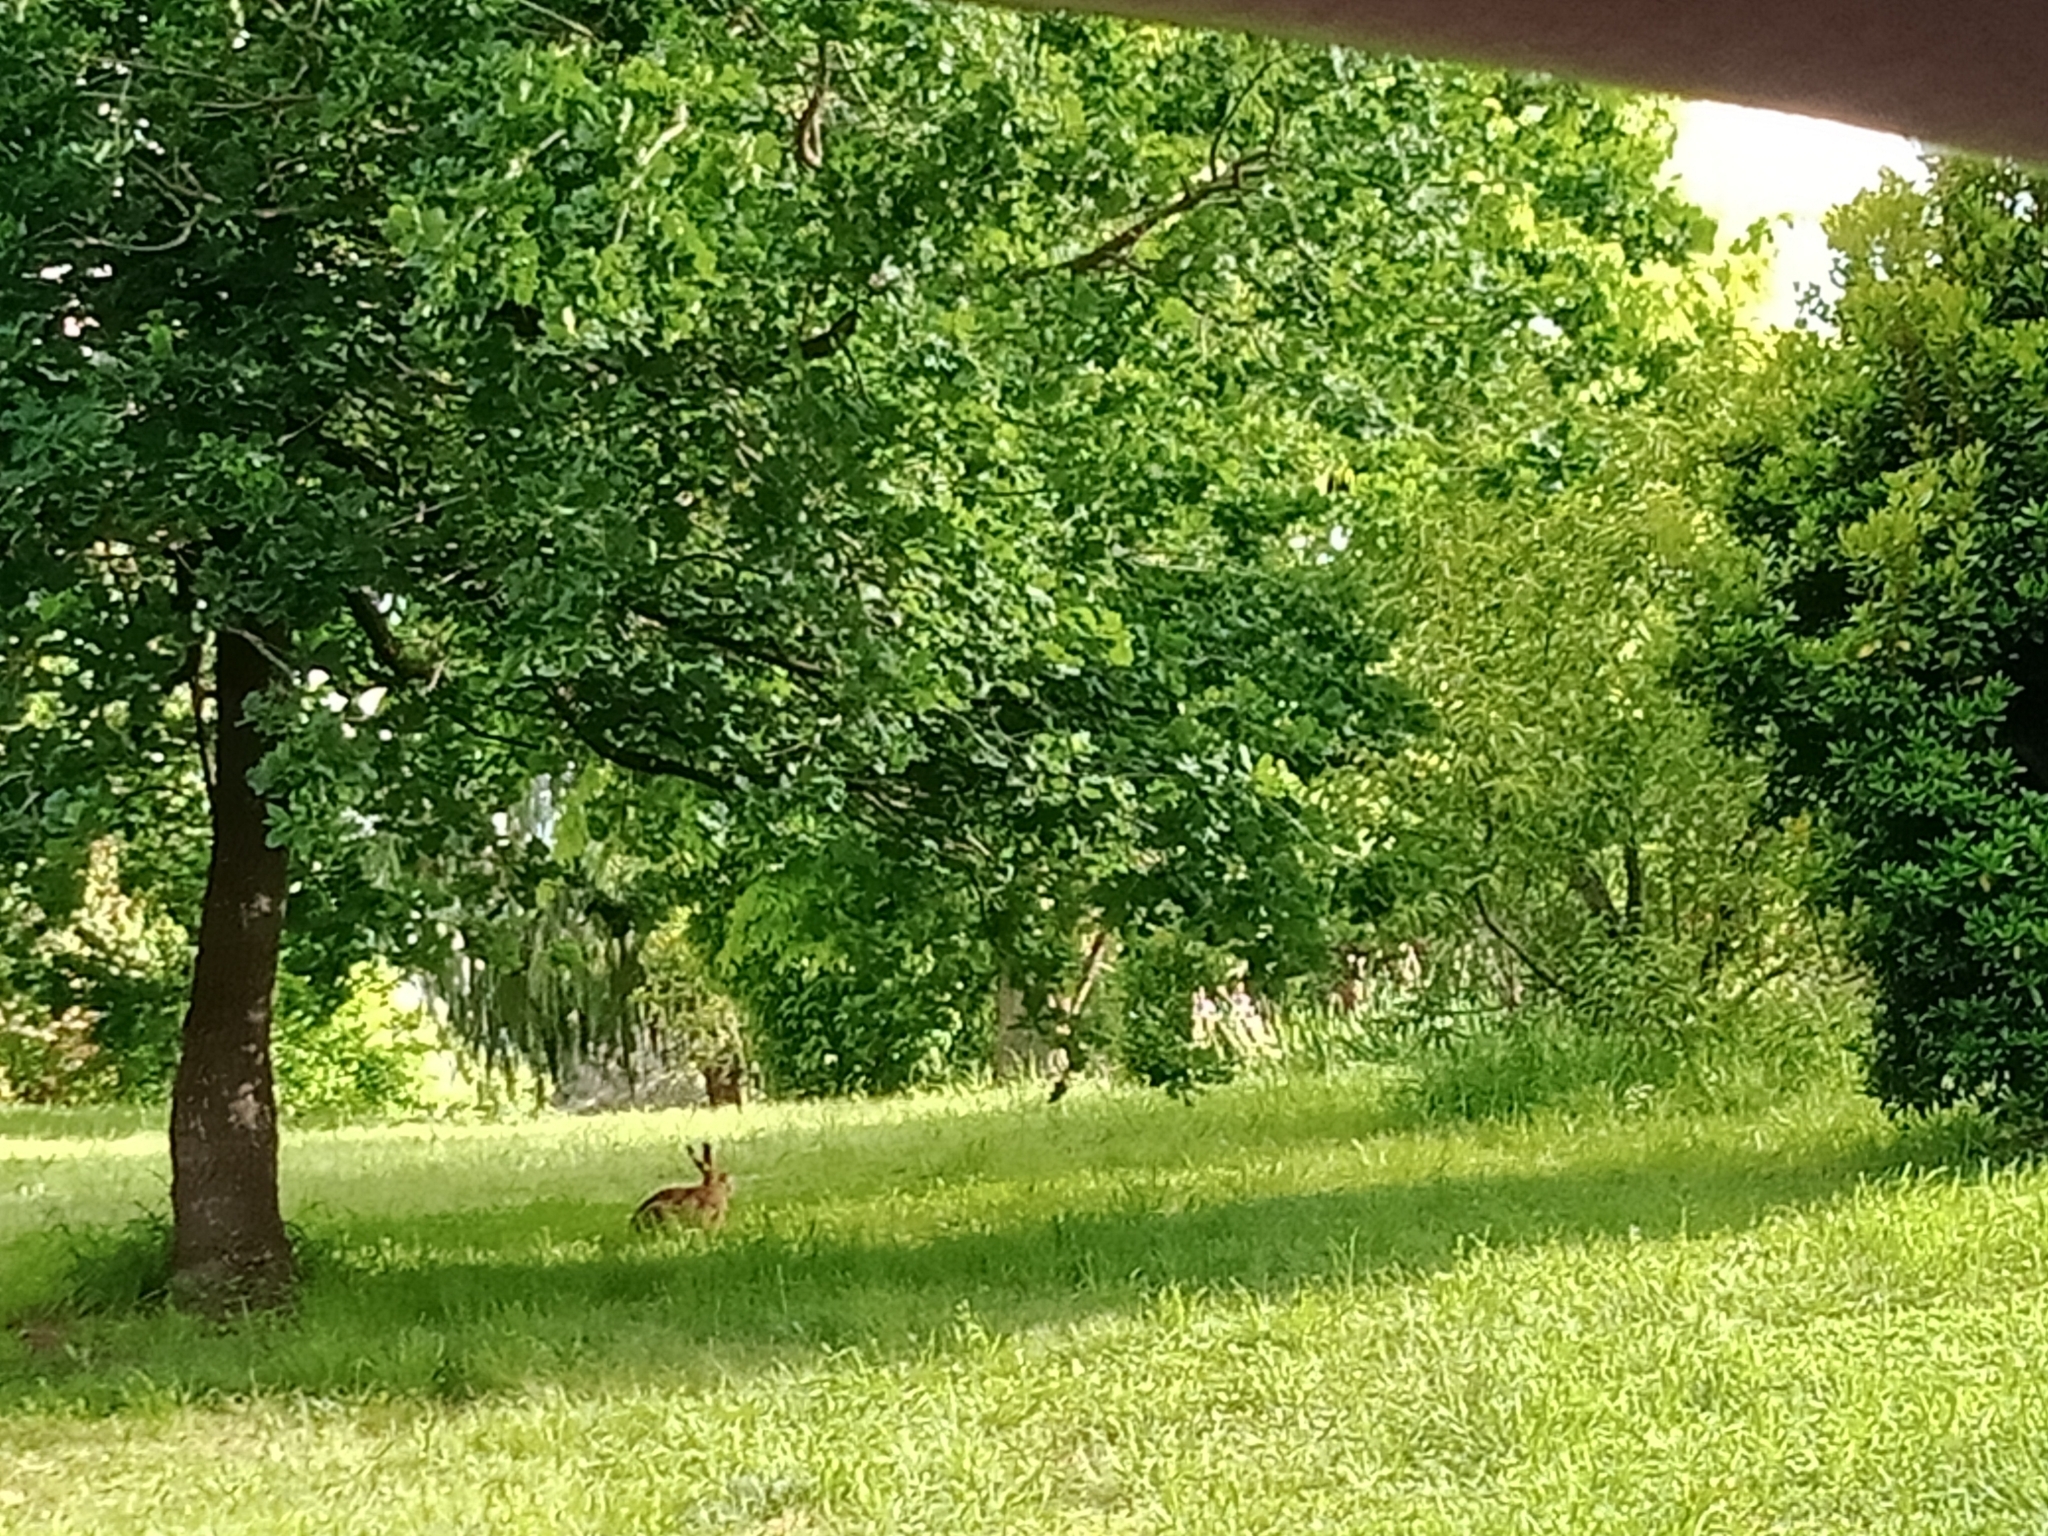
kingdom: Animalia
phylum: Chordata
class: Mammalia
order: Lagomorpha
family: Leporidae
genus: Lepus
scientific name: Lepus europaeus
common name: European hare
